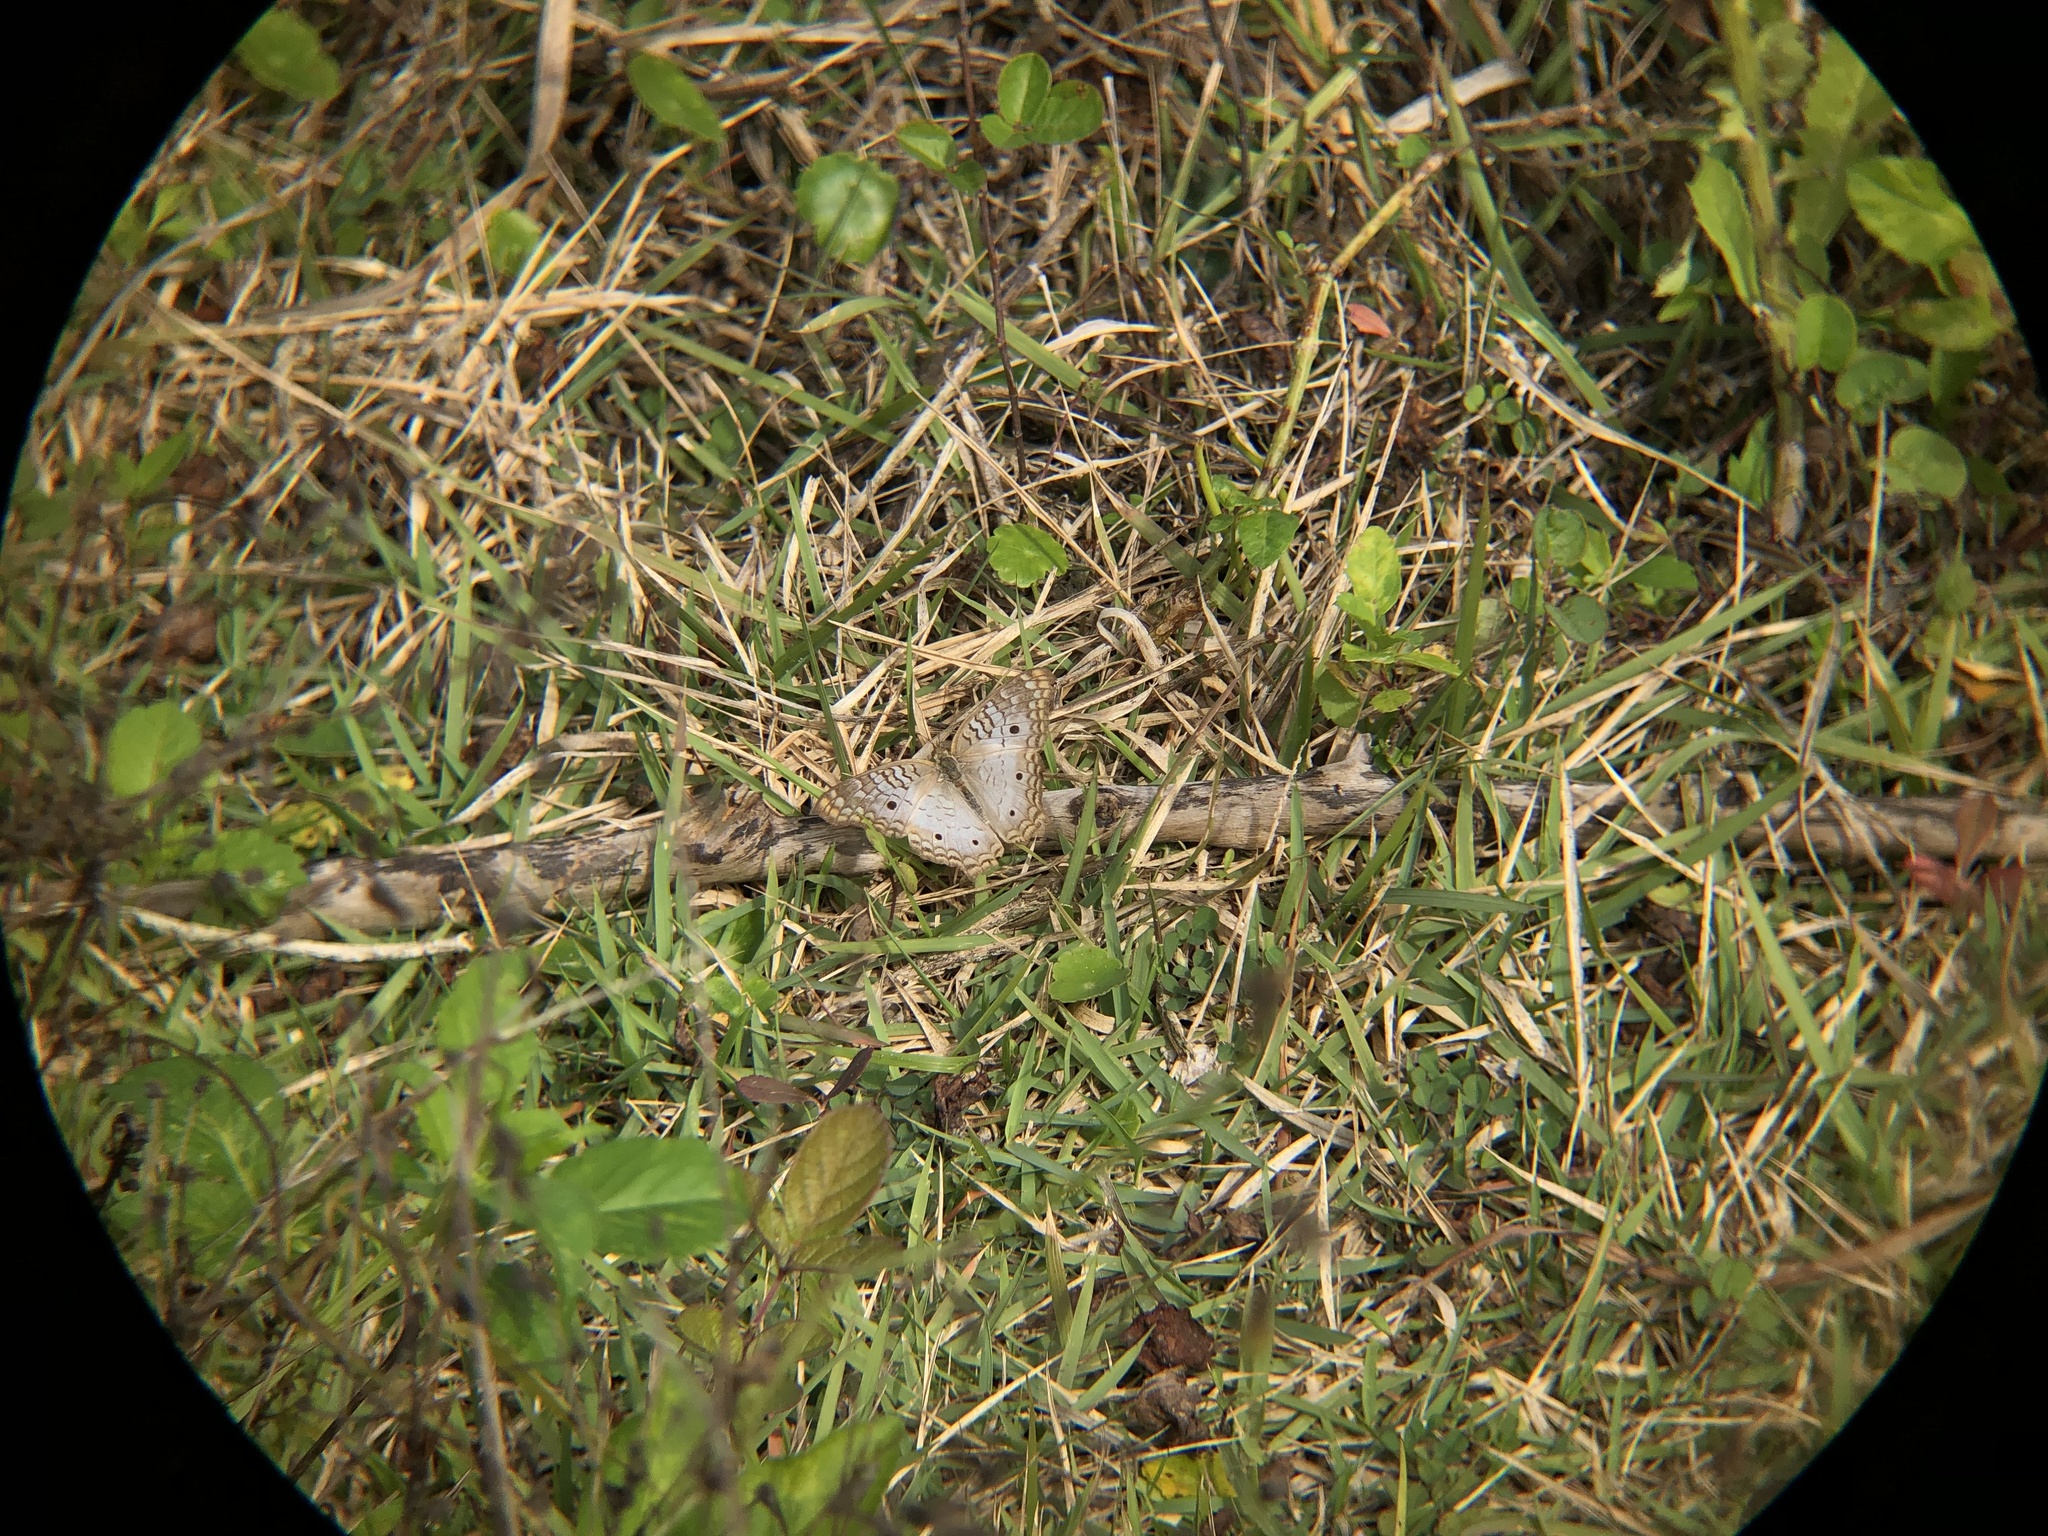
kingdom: Animalia
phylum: Arthropoda
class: Insecta
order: Lepidoptera
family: Nymphalidae
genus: Anartia
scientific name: Anartia jatrophae
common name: White peacock
